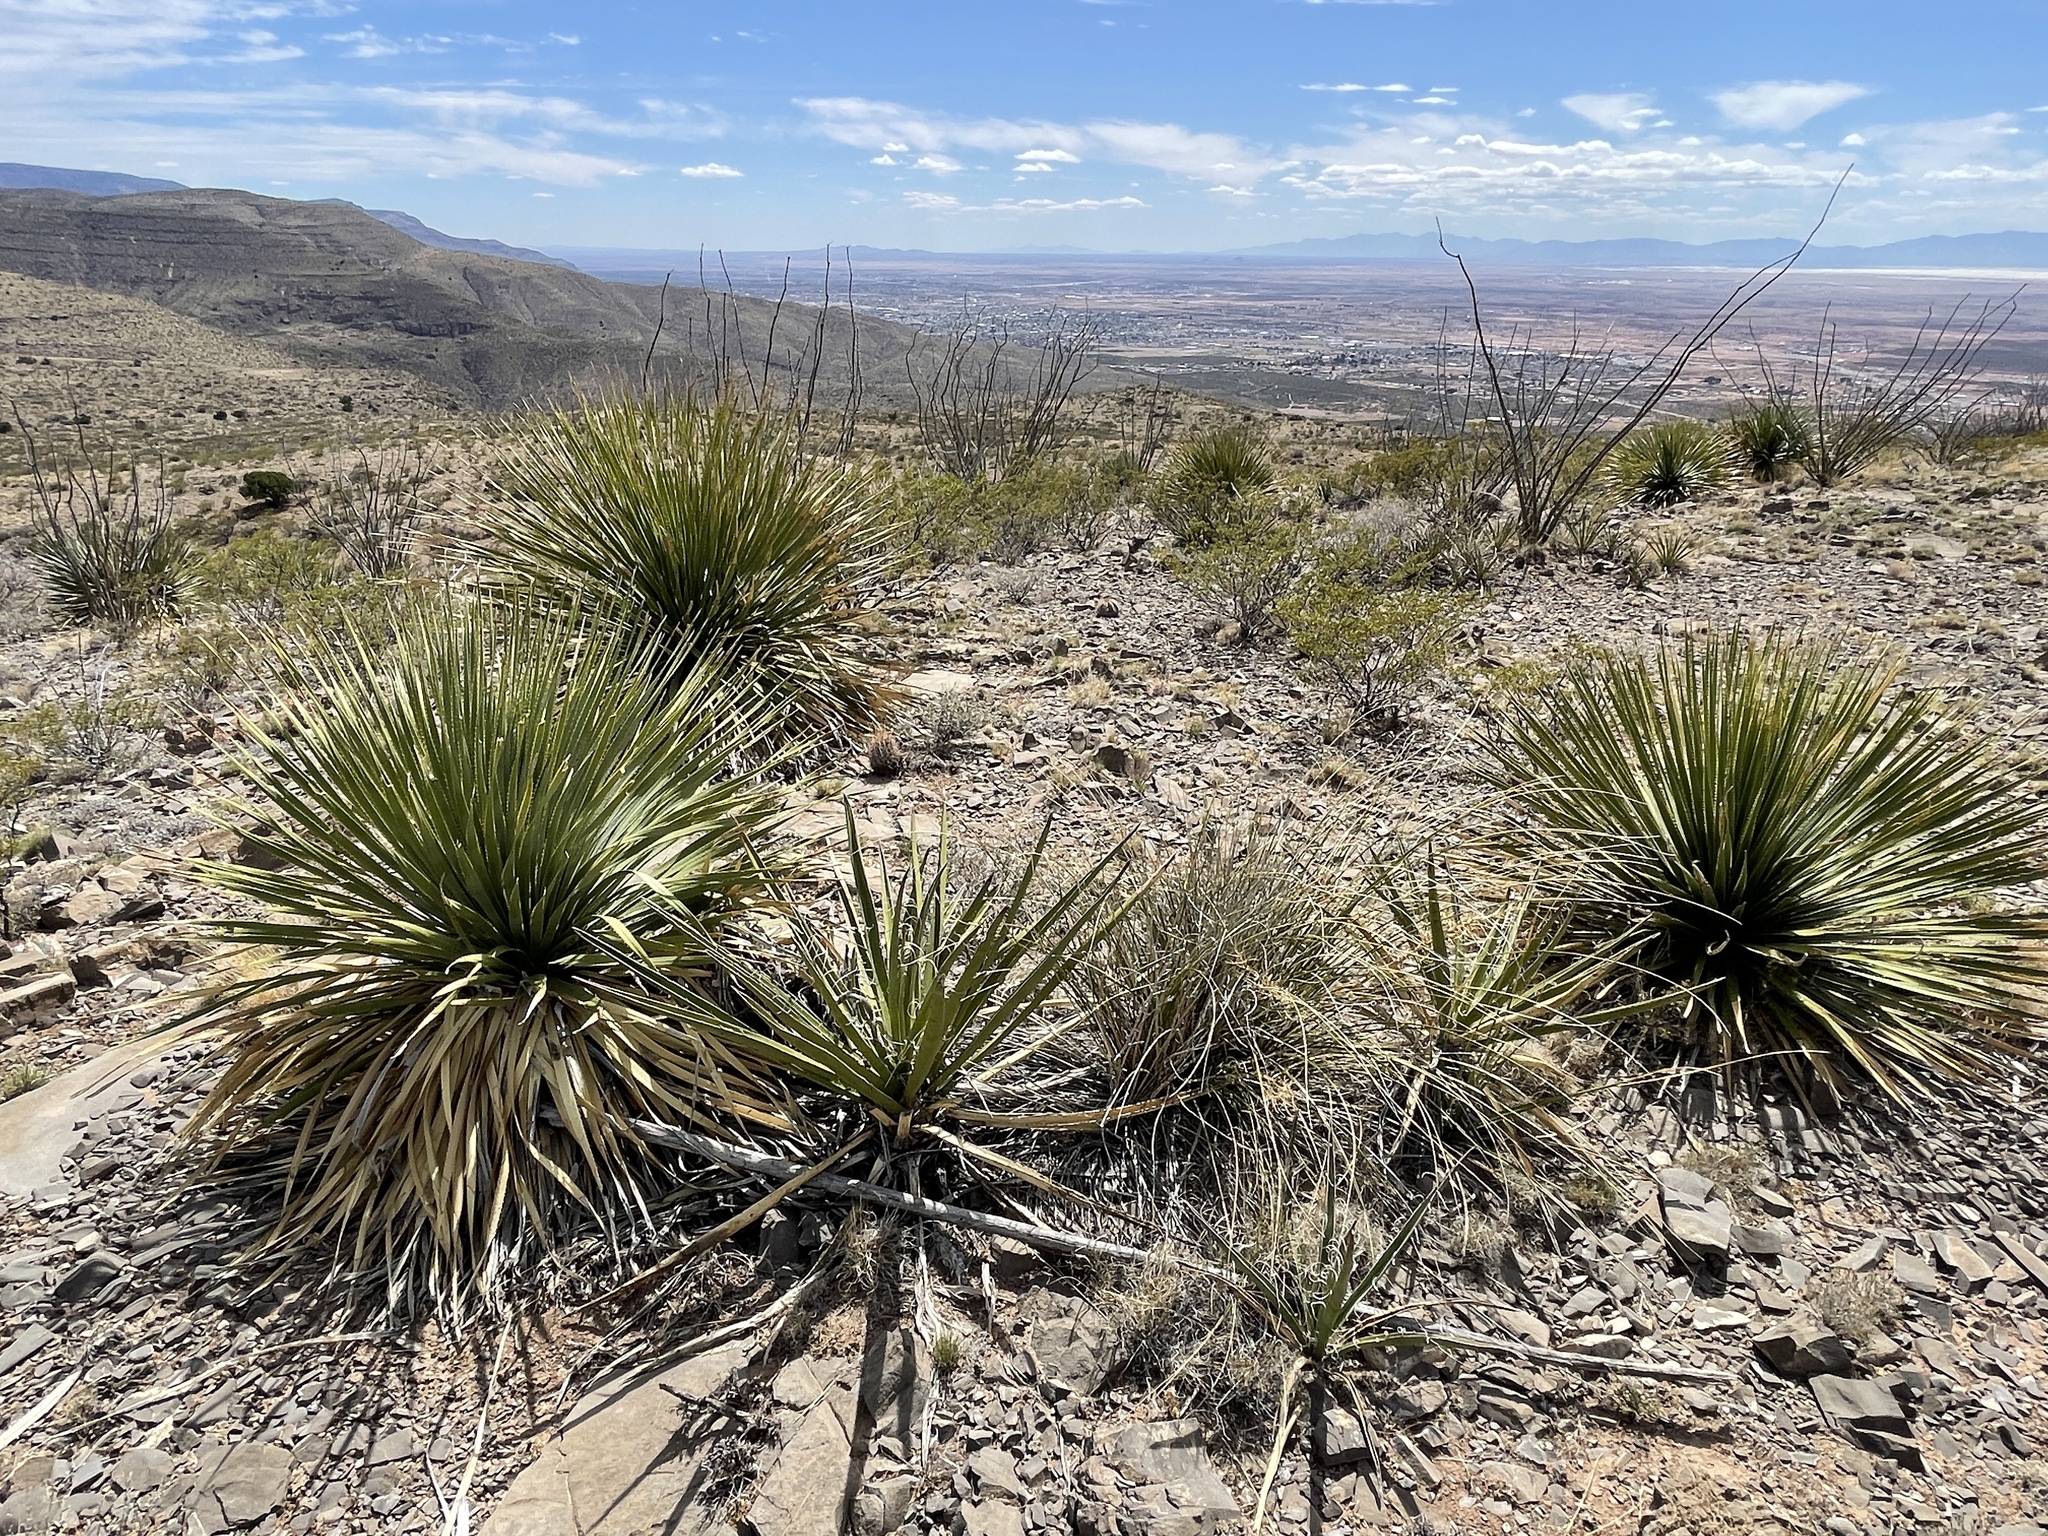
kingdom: Plantae
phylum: Tracheophyta
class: Liliopsida
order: Asparagales
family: Asparagaceae
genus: Dasylirion
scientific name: Dasylirion wheeleri
